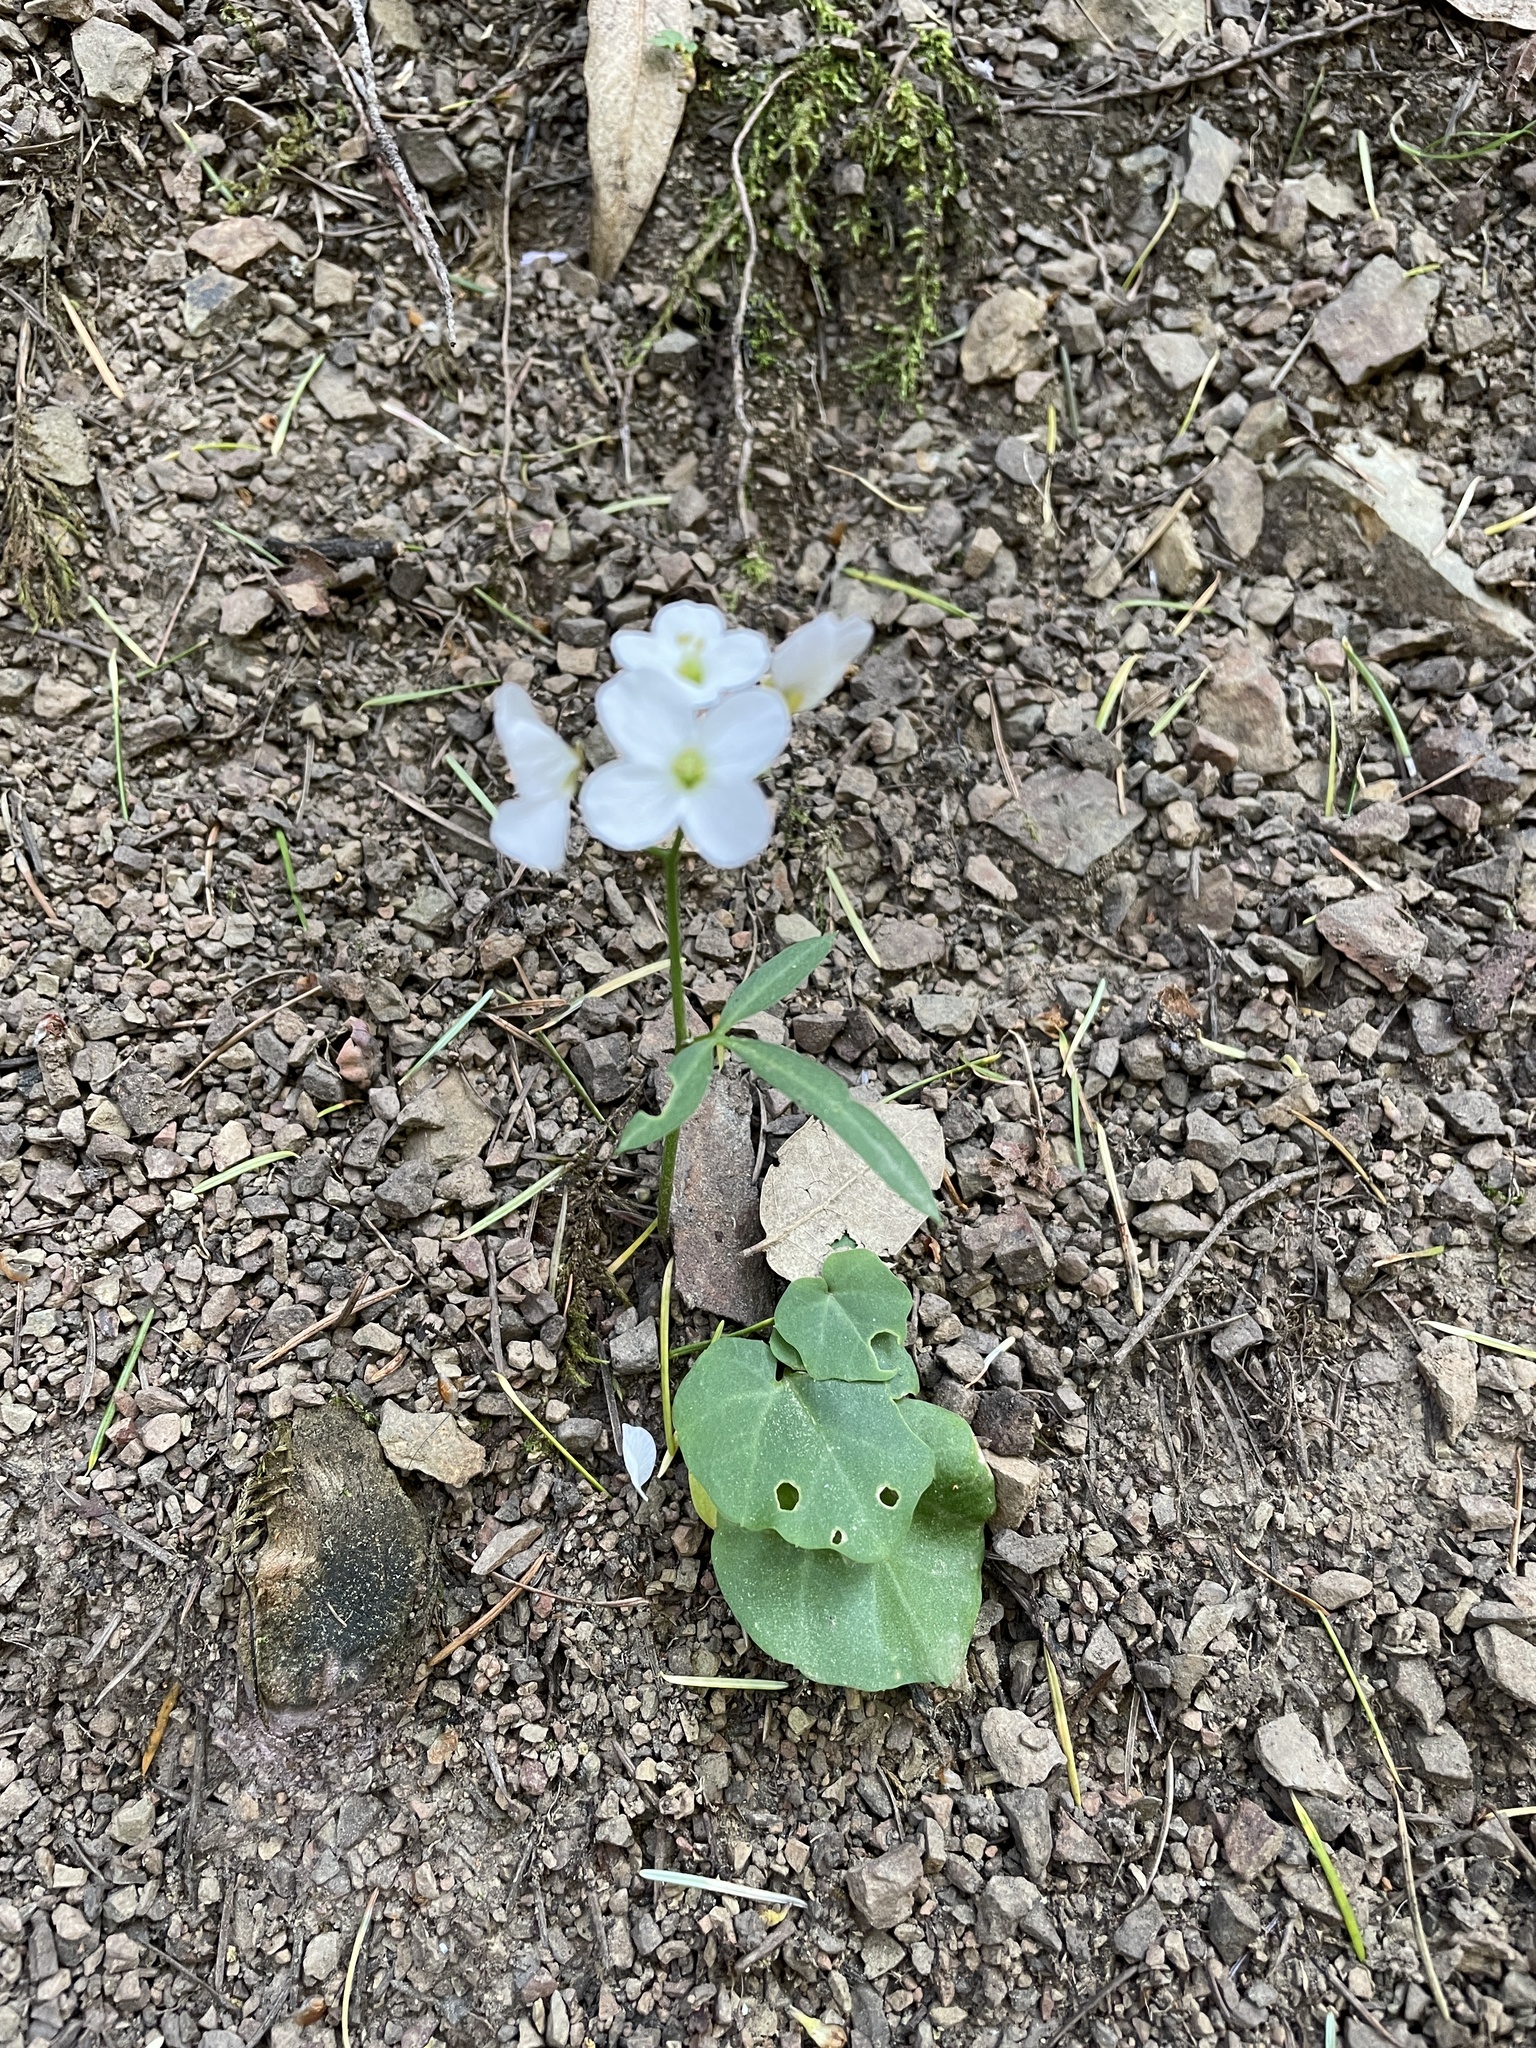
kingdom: Plantae
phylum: Tracheophyta
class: Magnoliopsida
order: Brassicales
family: Brassicaceae
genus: Cardamine
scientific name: Cardamine californica
